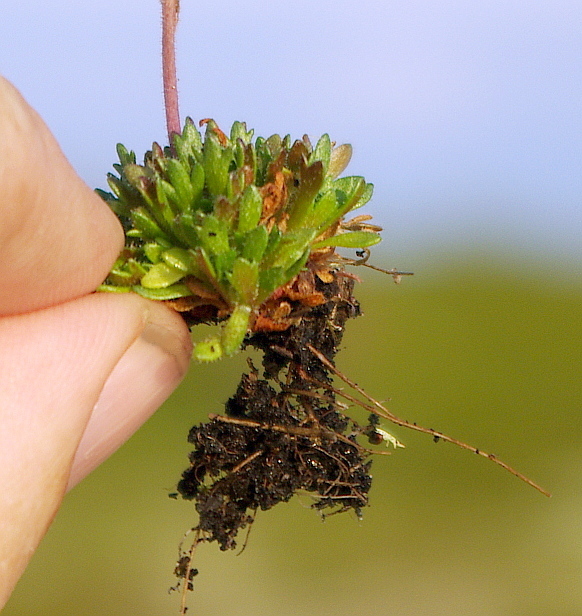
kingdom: Plantae
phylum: Tracheophyta
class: Magnoliopsida
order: Saxifragales
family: Saxifragaceae
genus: Saxifraga
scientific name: Saxifraga cespitosa
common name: Tufted saxifrage
